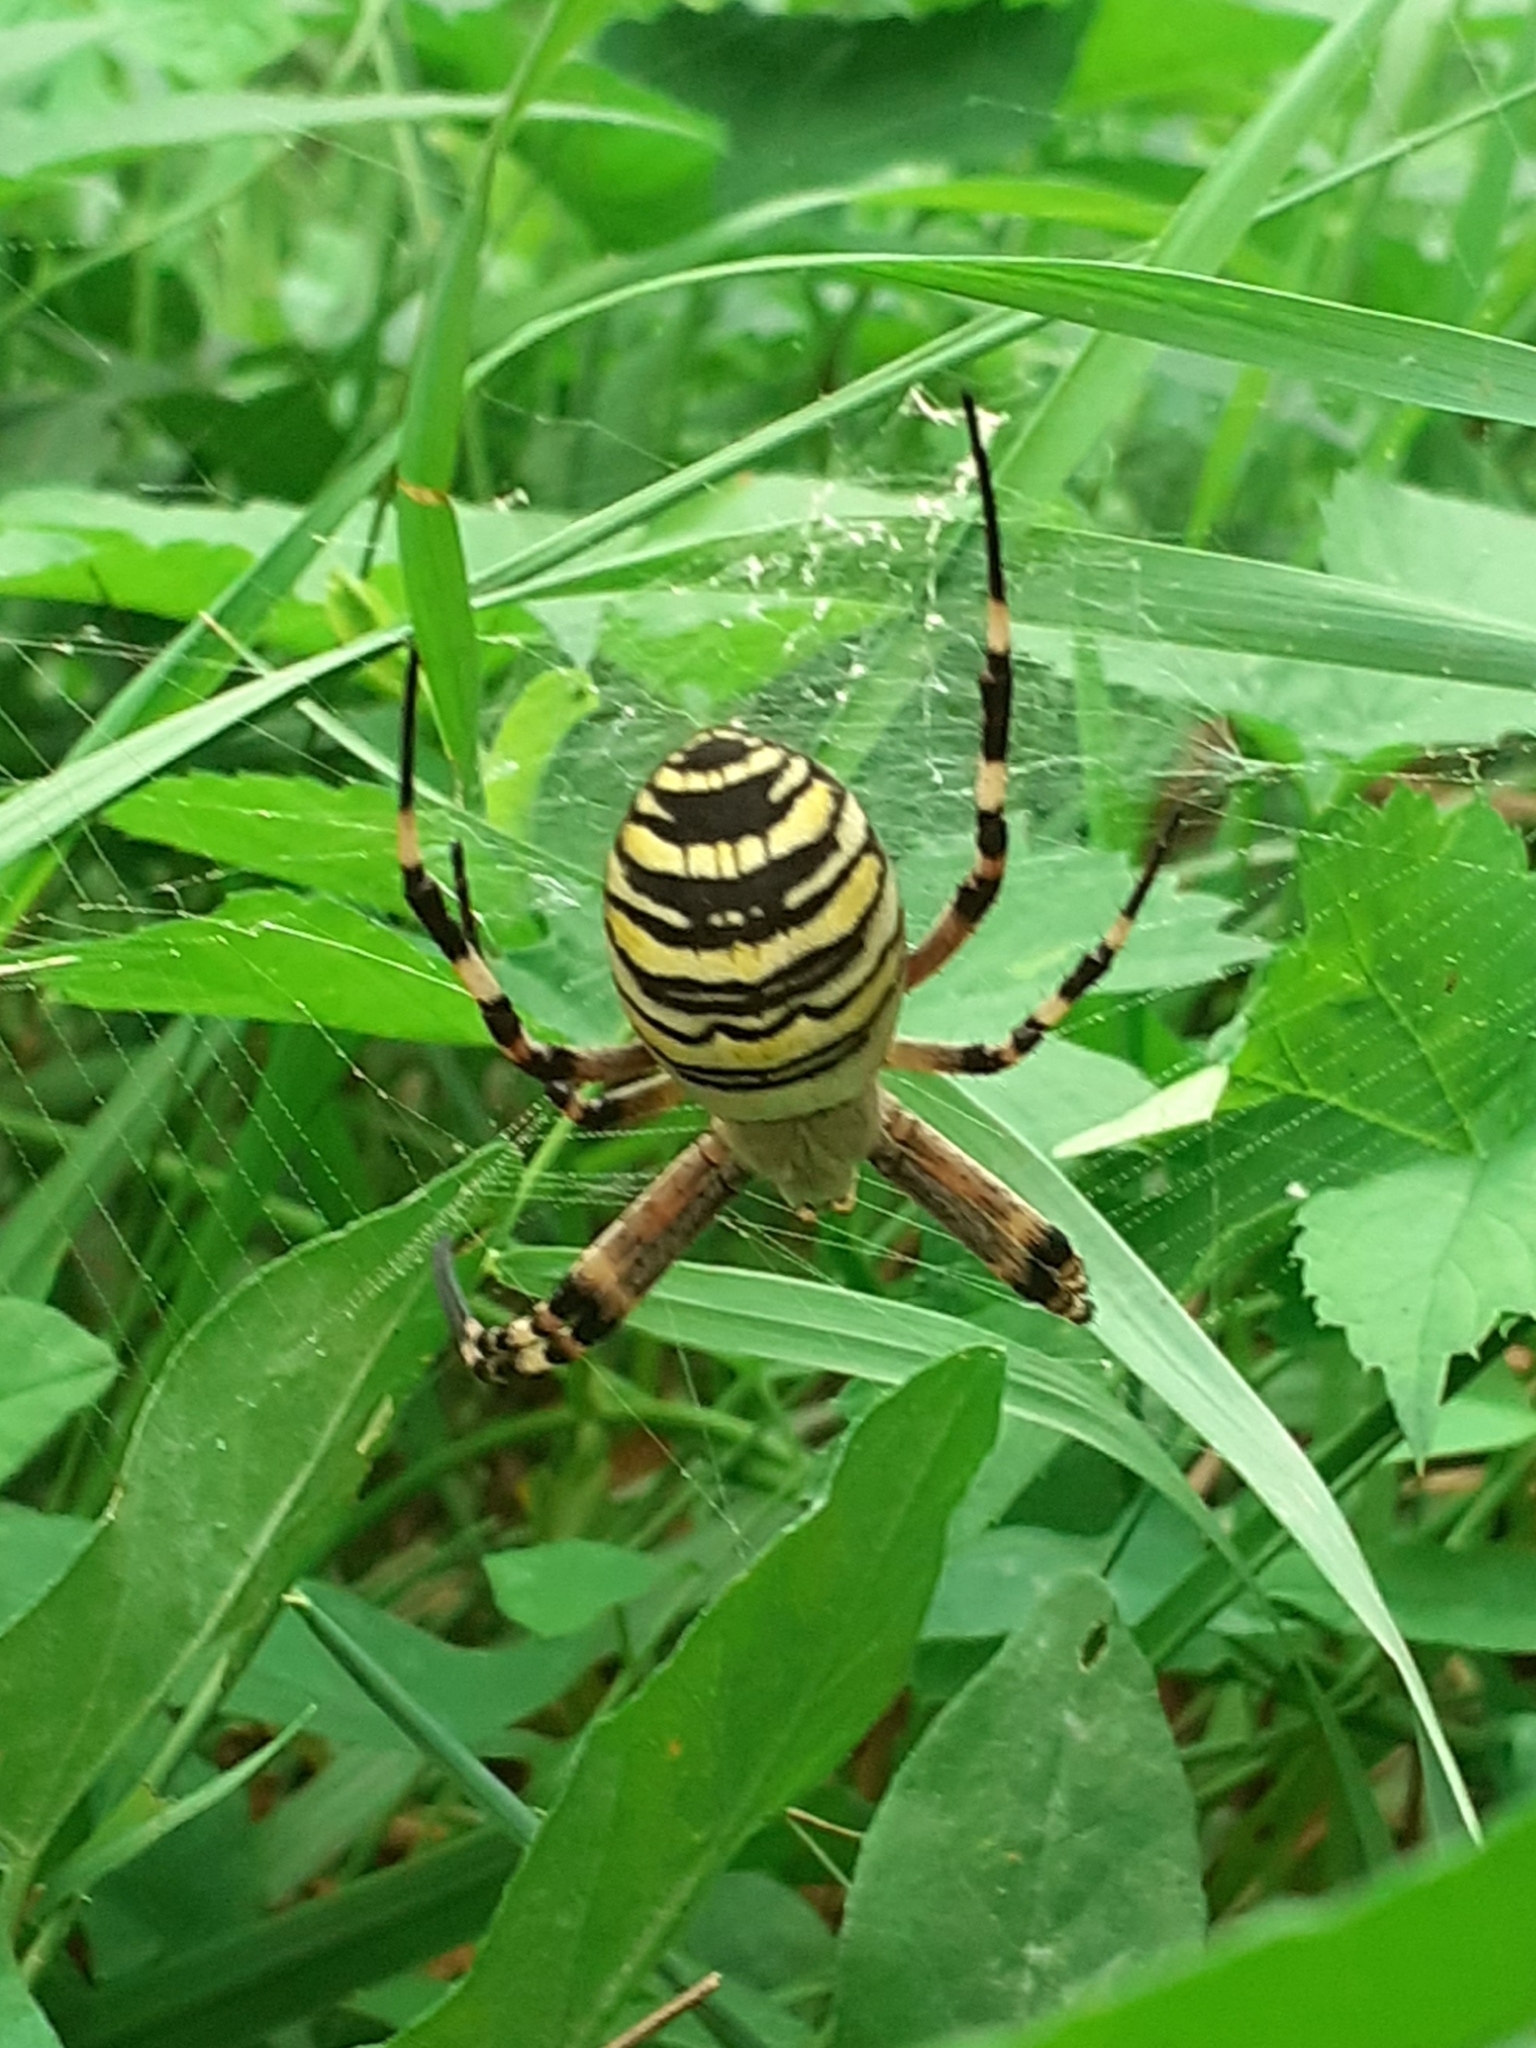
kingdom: Animalia
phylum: Arthropoda
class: Arachnida
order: Araneae
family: Araneidae
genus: Argiope
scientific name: Argiope bruennichi
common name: Wasp spider
